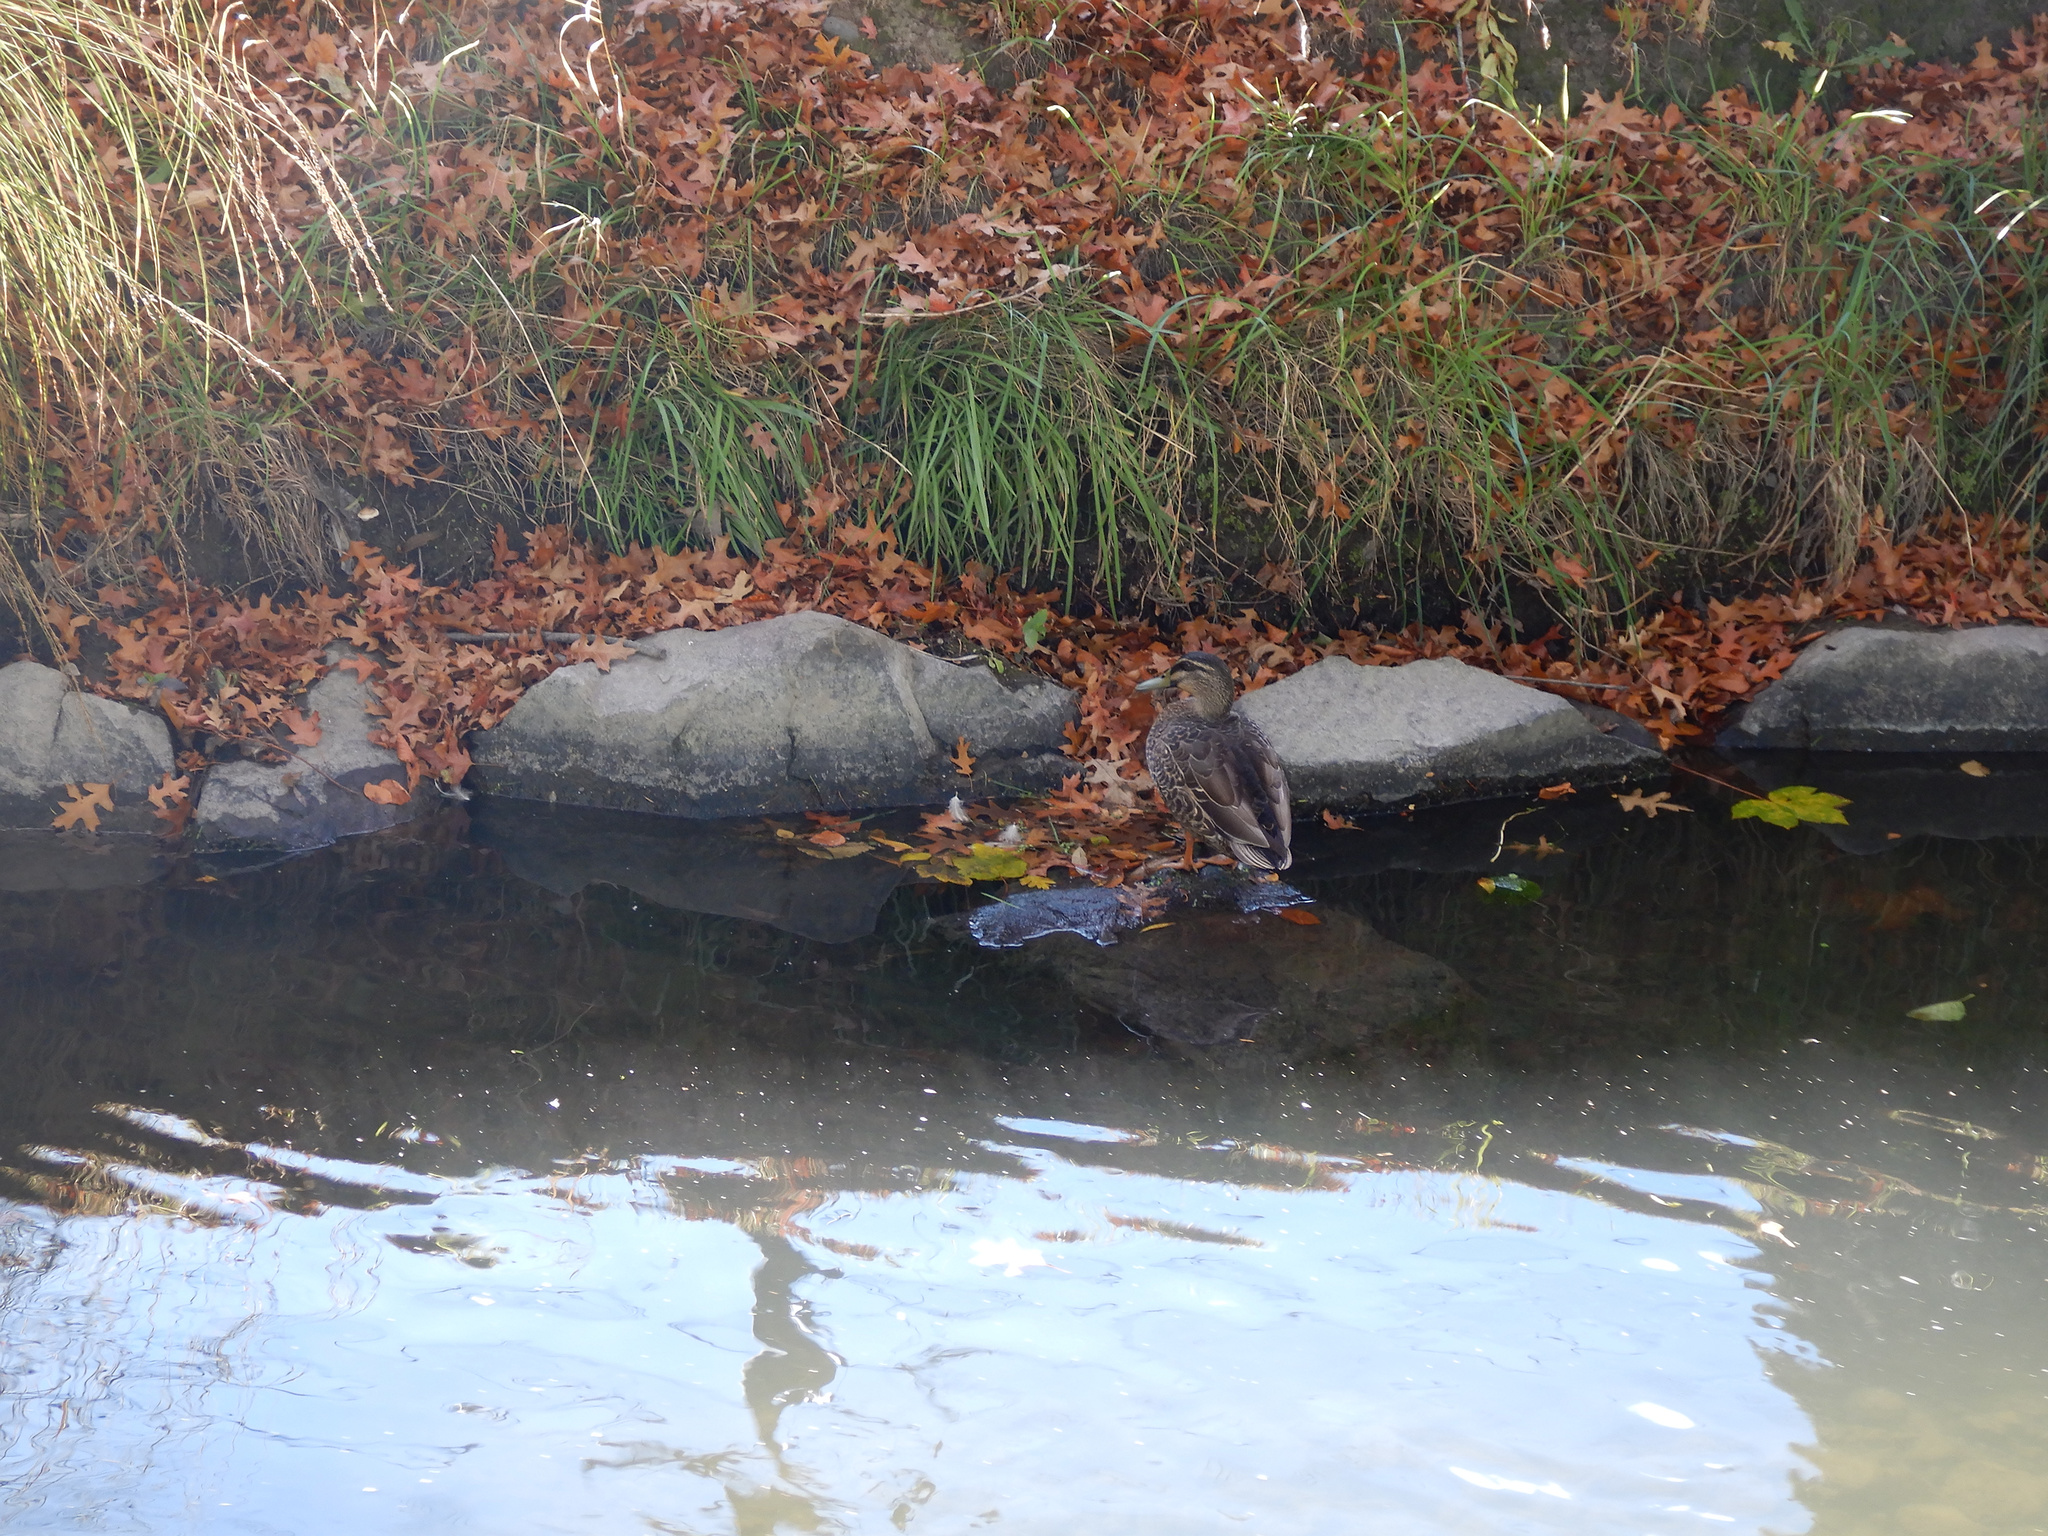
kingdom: Animalia
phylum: Chordata
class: Aves
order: Anseriformes
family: Anatidae
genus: Anas
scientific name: Anas
